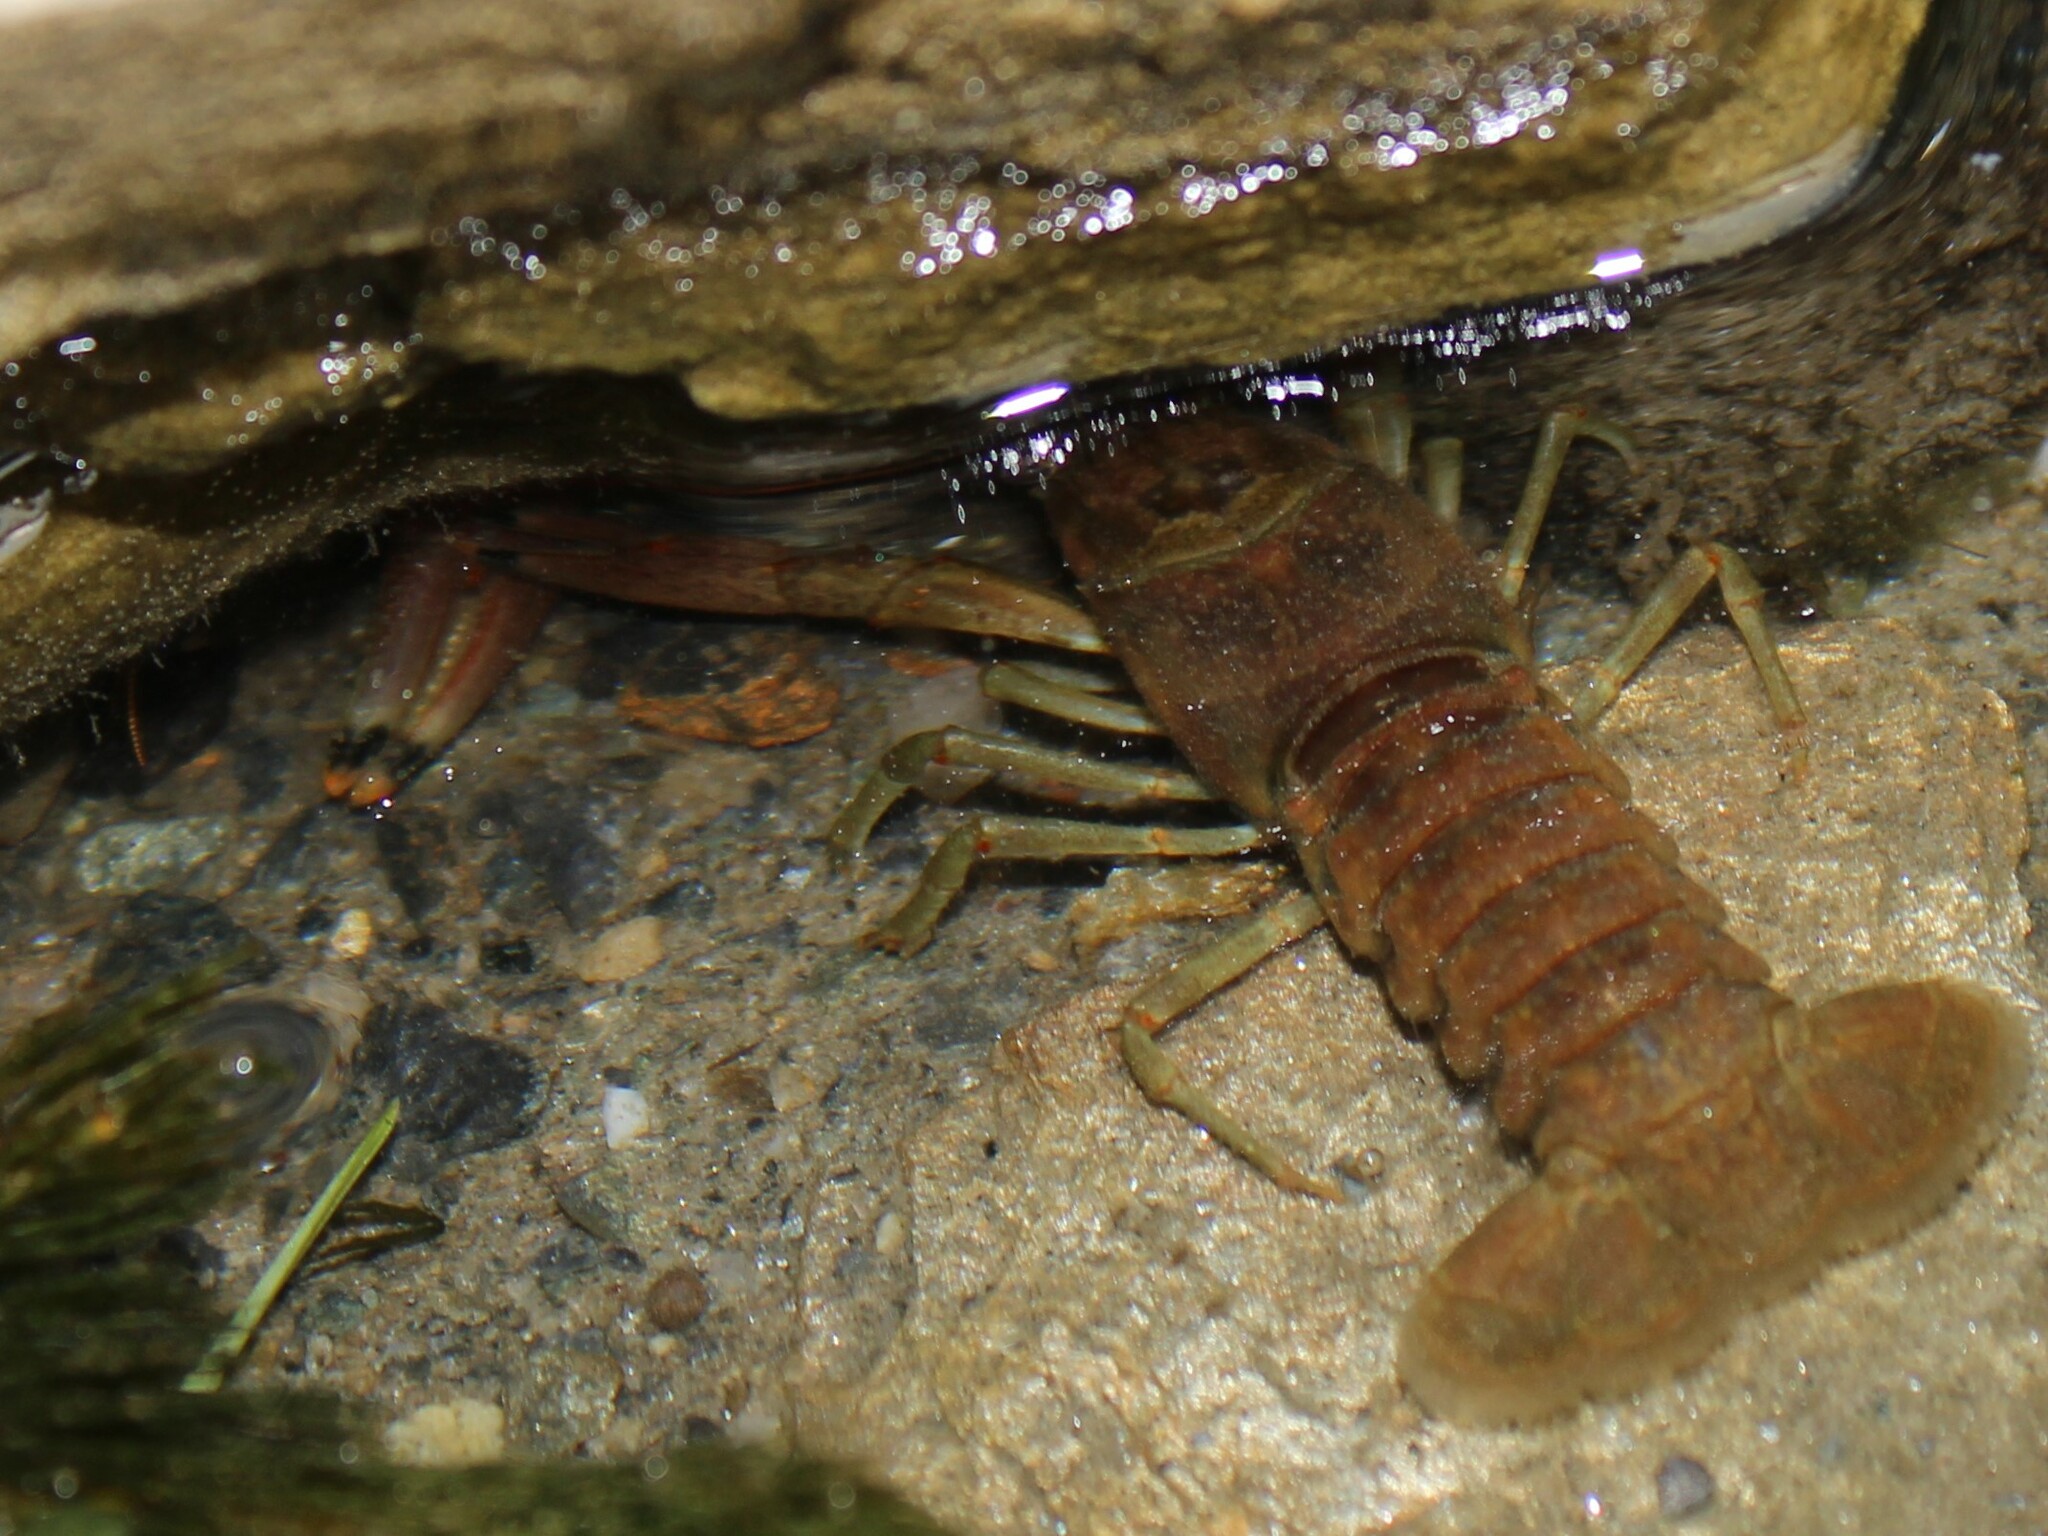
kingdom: Animalia
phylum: Arthropoda
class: Malacostraca
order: Decapoda
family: Cambaridae
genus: Faxonius
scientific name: Faxonius rusticus
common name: Rusty crayfish
